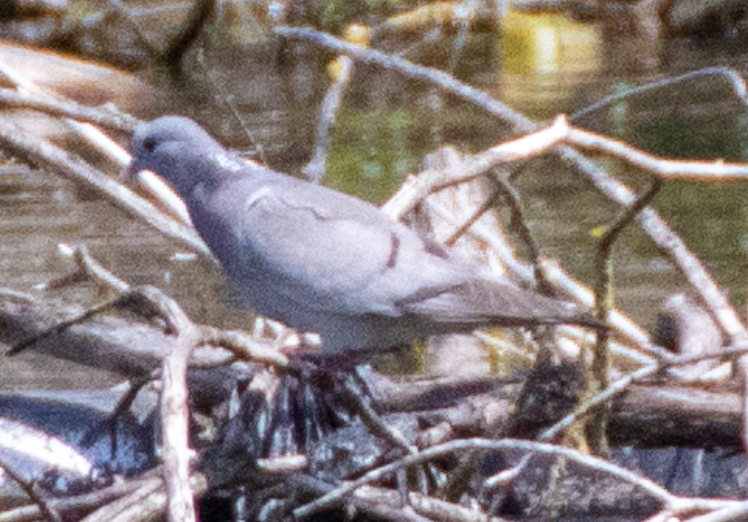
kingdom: Animalia
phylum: Chordata
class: Aves
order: Columbiformes
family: Columbidae
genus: Columba
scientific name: Columba oenas
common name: Stock dove
